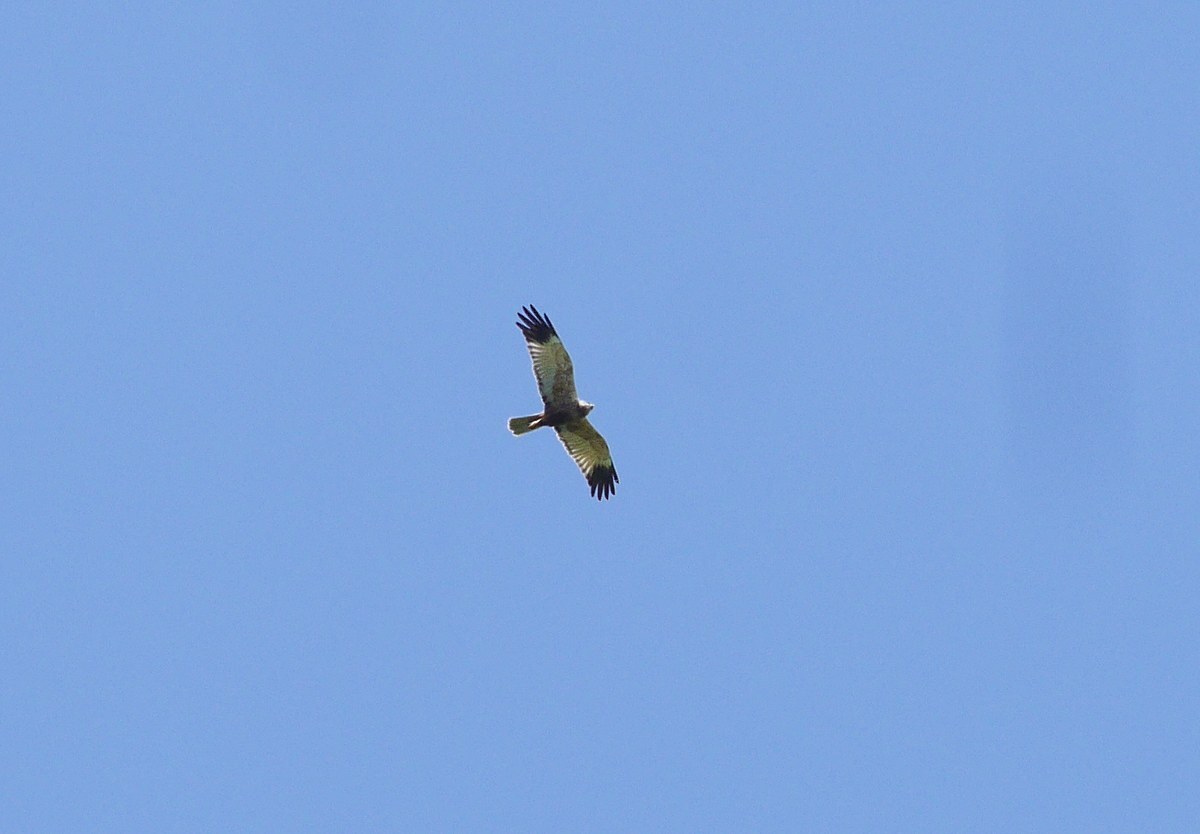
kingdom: Animalia
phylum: Chordata
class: Aves
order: Accipitriformes
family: Accipitridae
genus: Circus
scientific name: Circus aeruginosus
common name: Western marsh harrier
